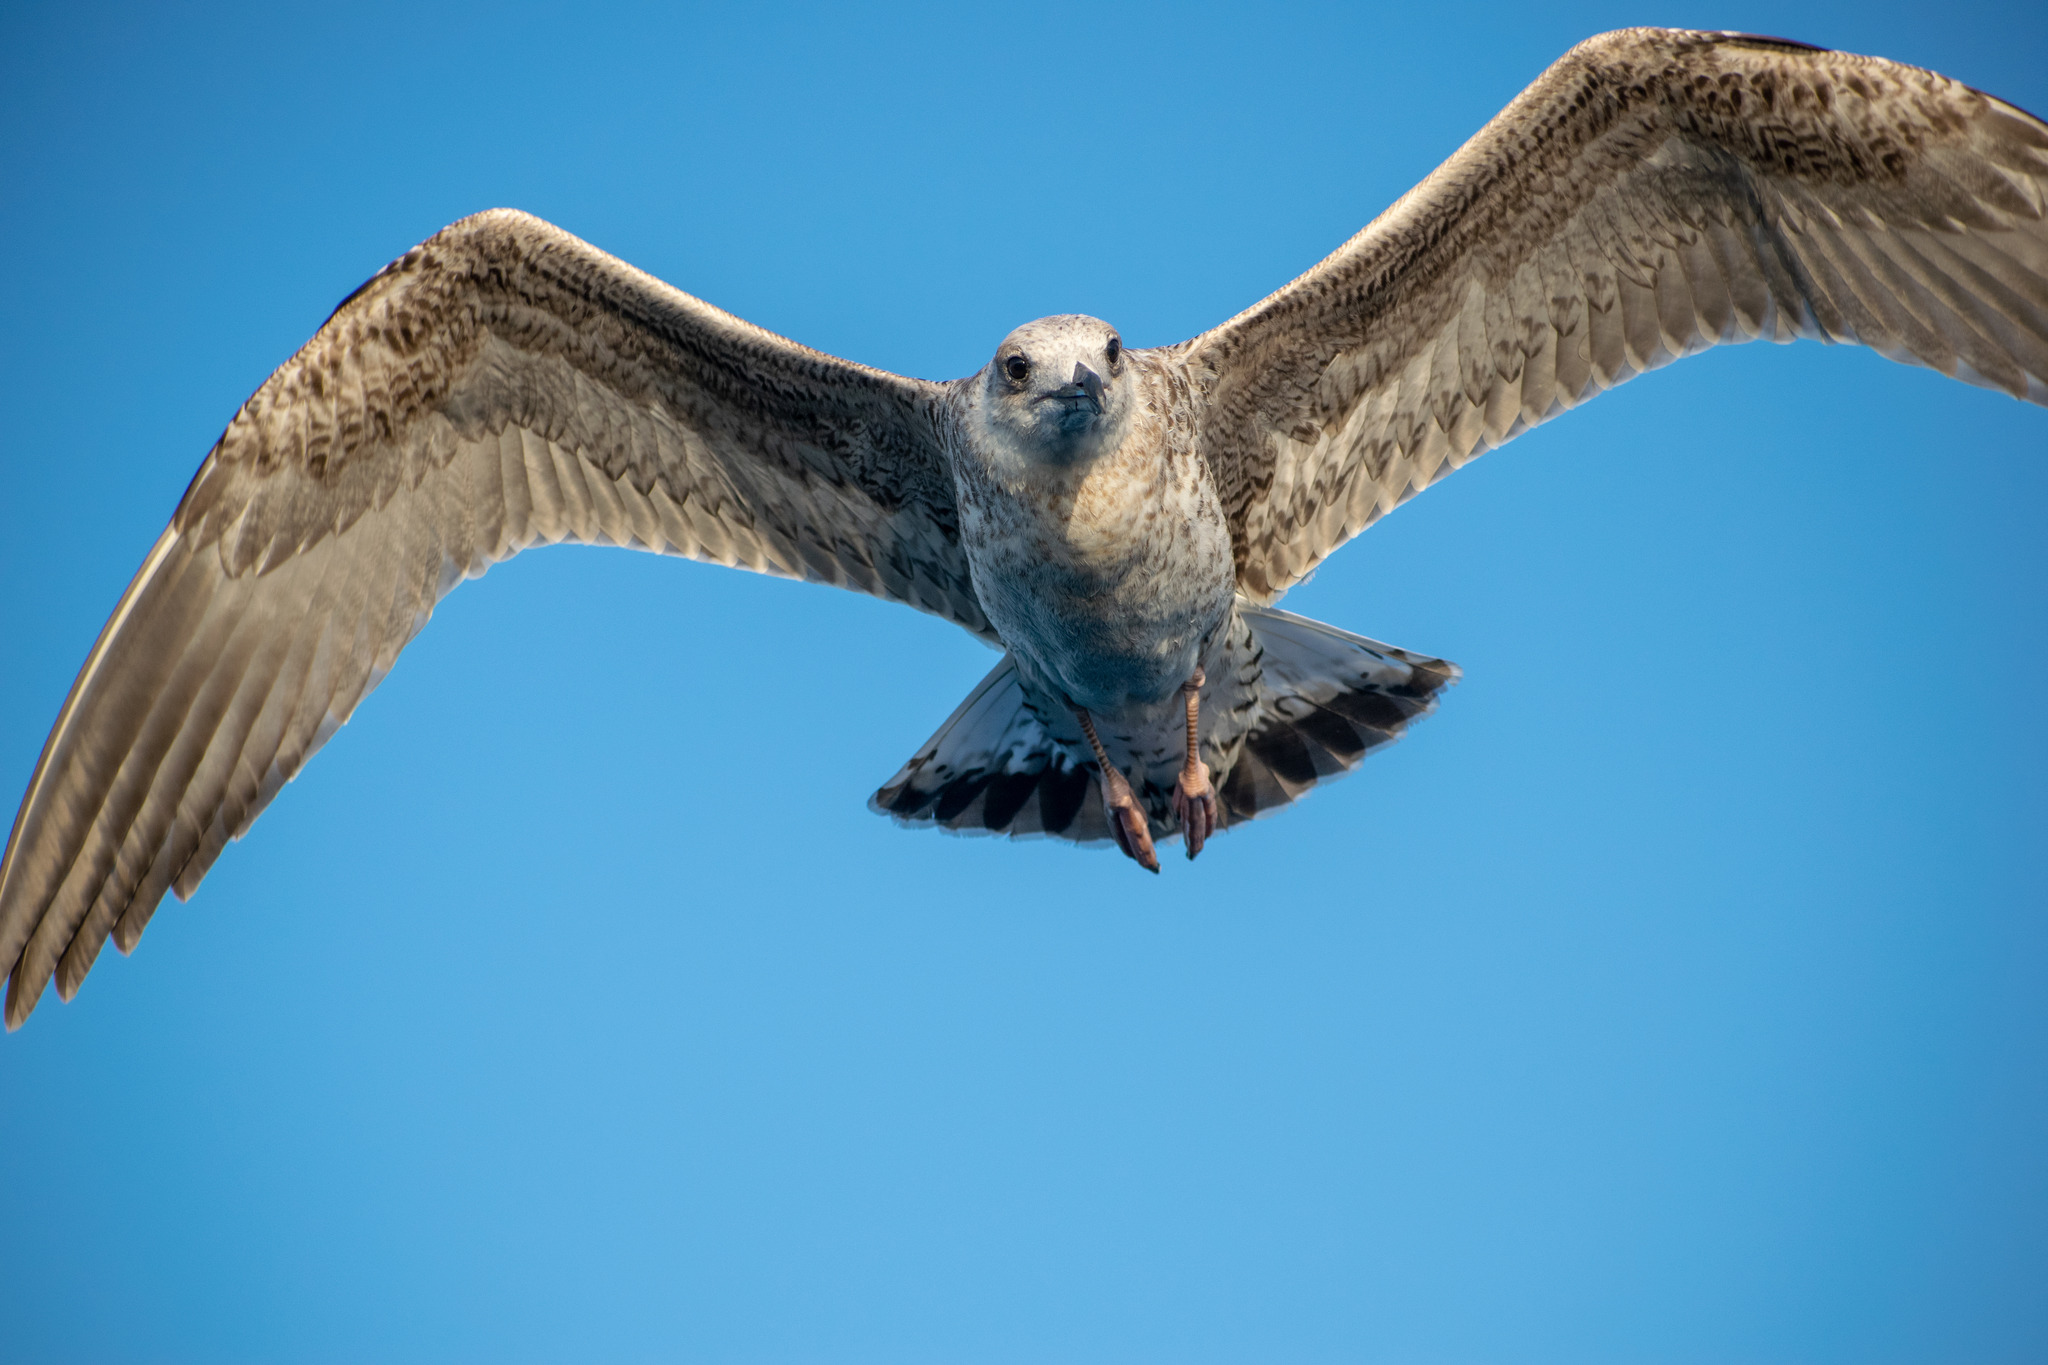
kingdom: Animalia
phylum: Chordata
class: Aves
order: Charadriiformes
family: Laridae
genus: Larus
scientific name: Larus michahellis
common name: Yellow-legged gull
